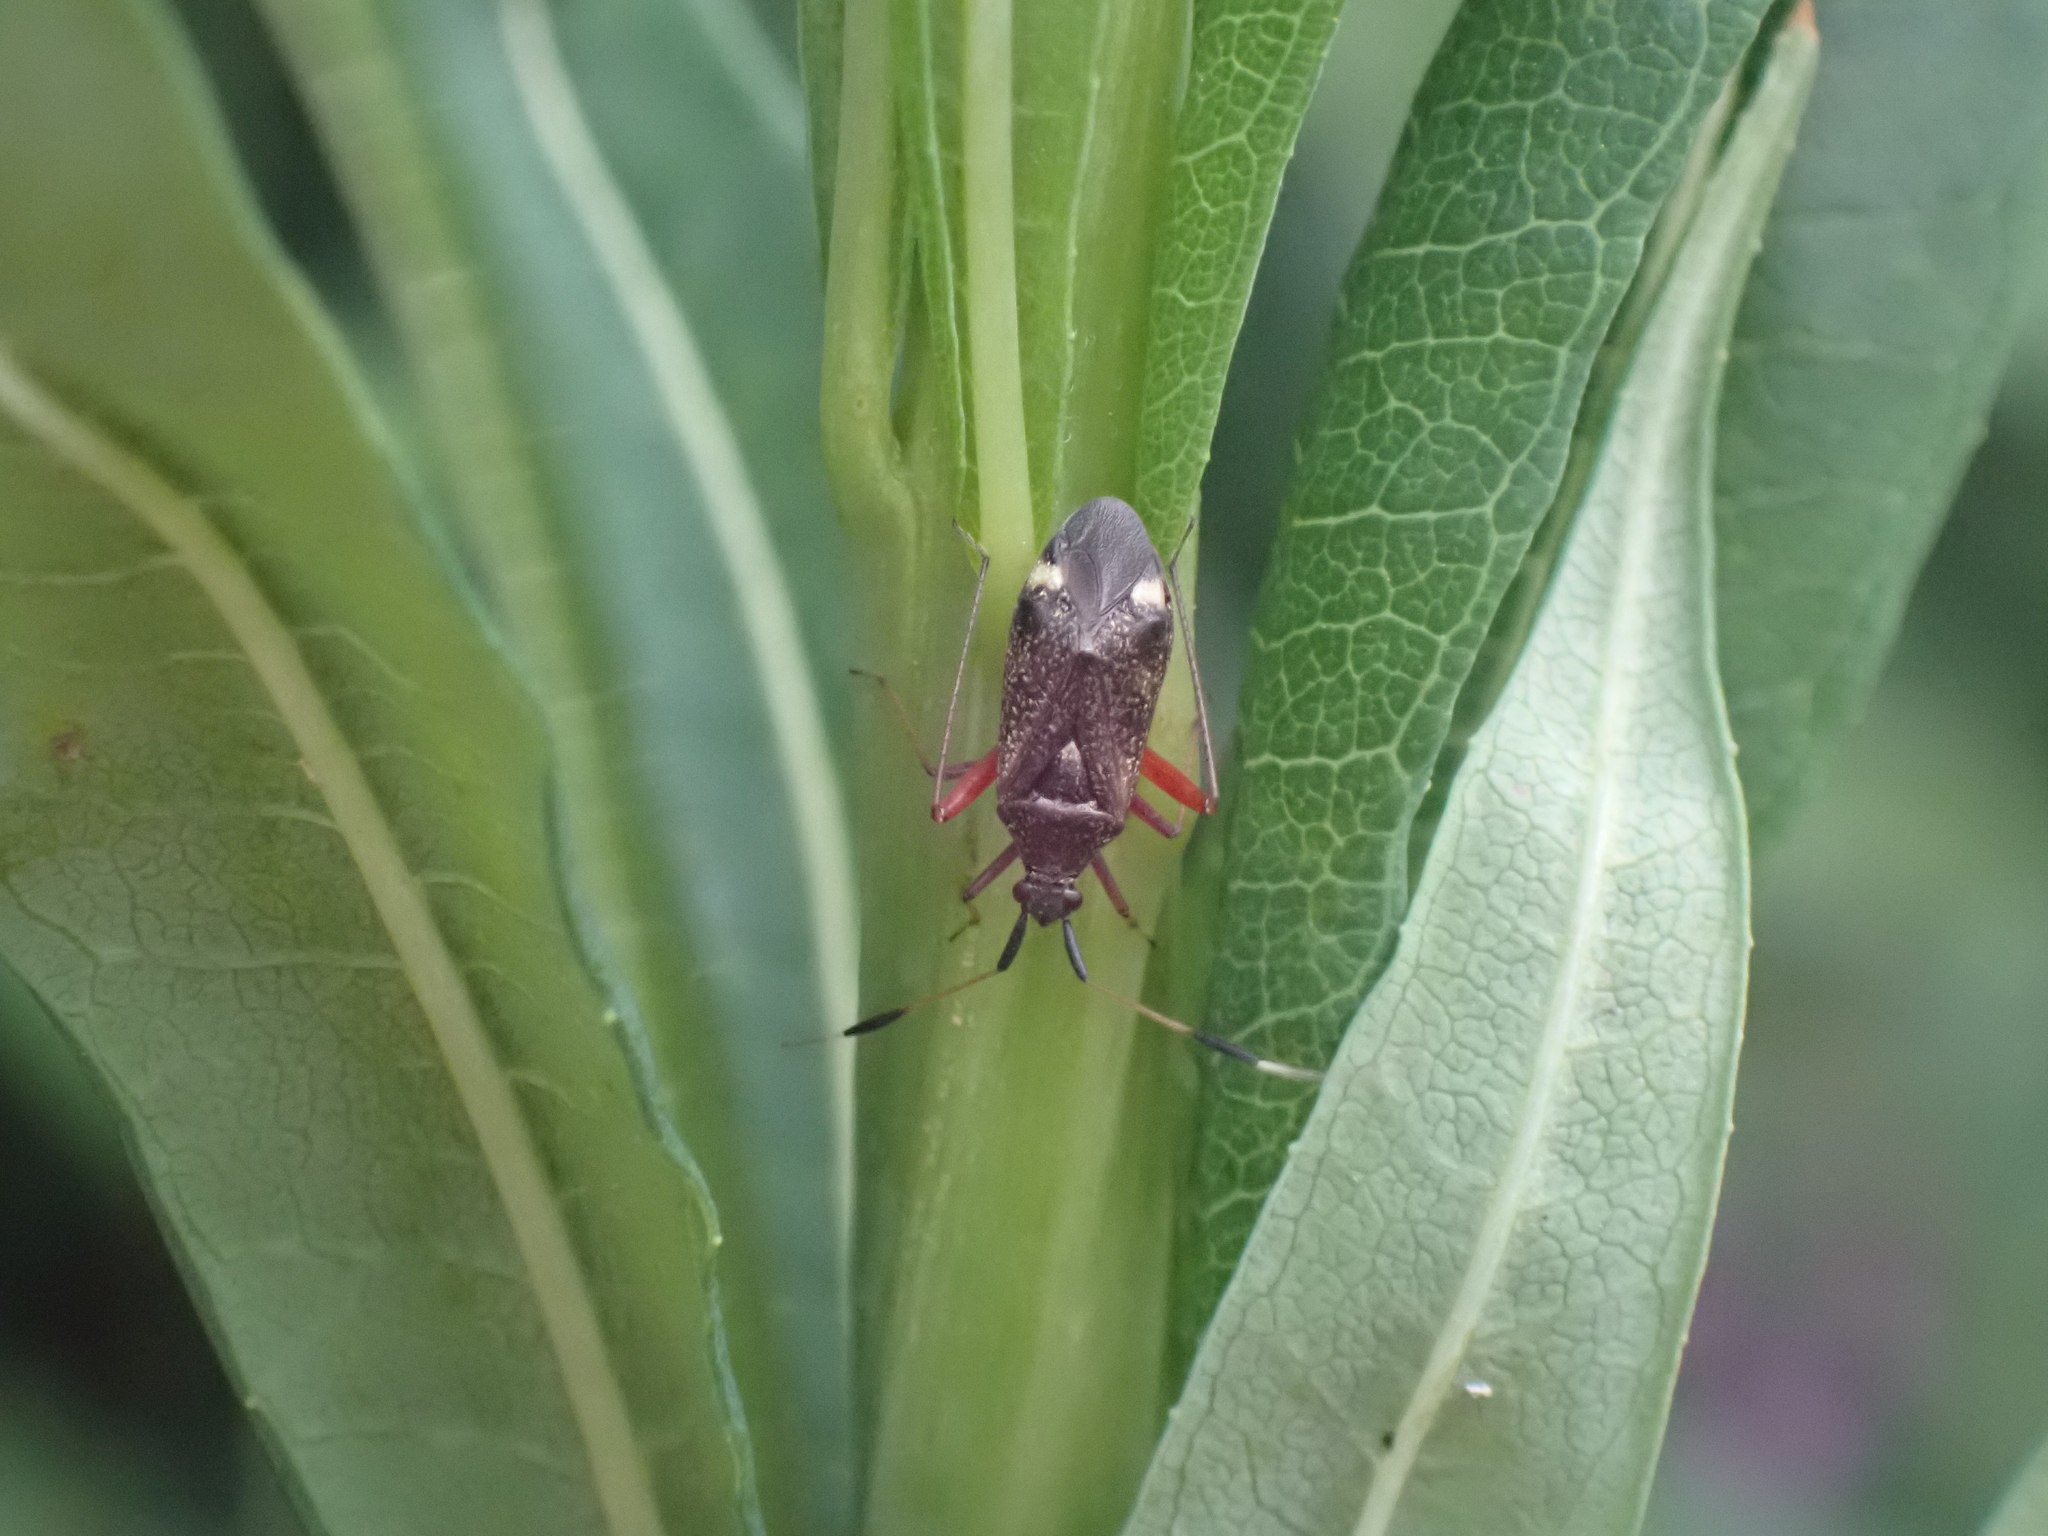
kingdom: Animalia
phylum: Arthropoda
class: Insecta
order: Hemiptera
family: Miridae
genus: Closterotomus
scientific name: Closterotomus biclavatus
